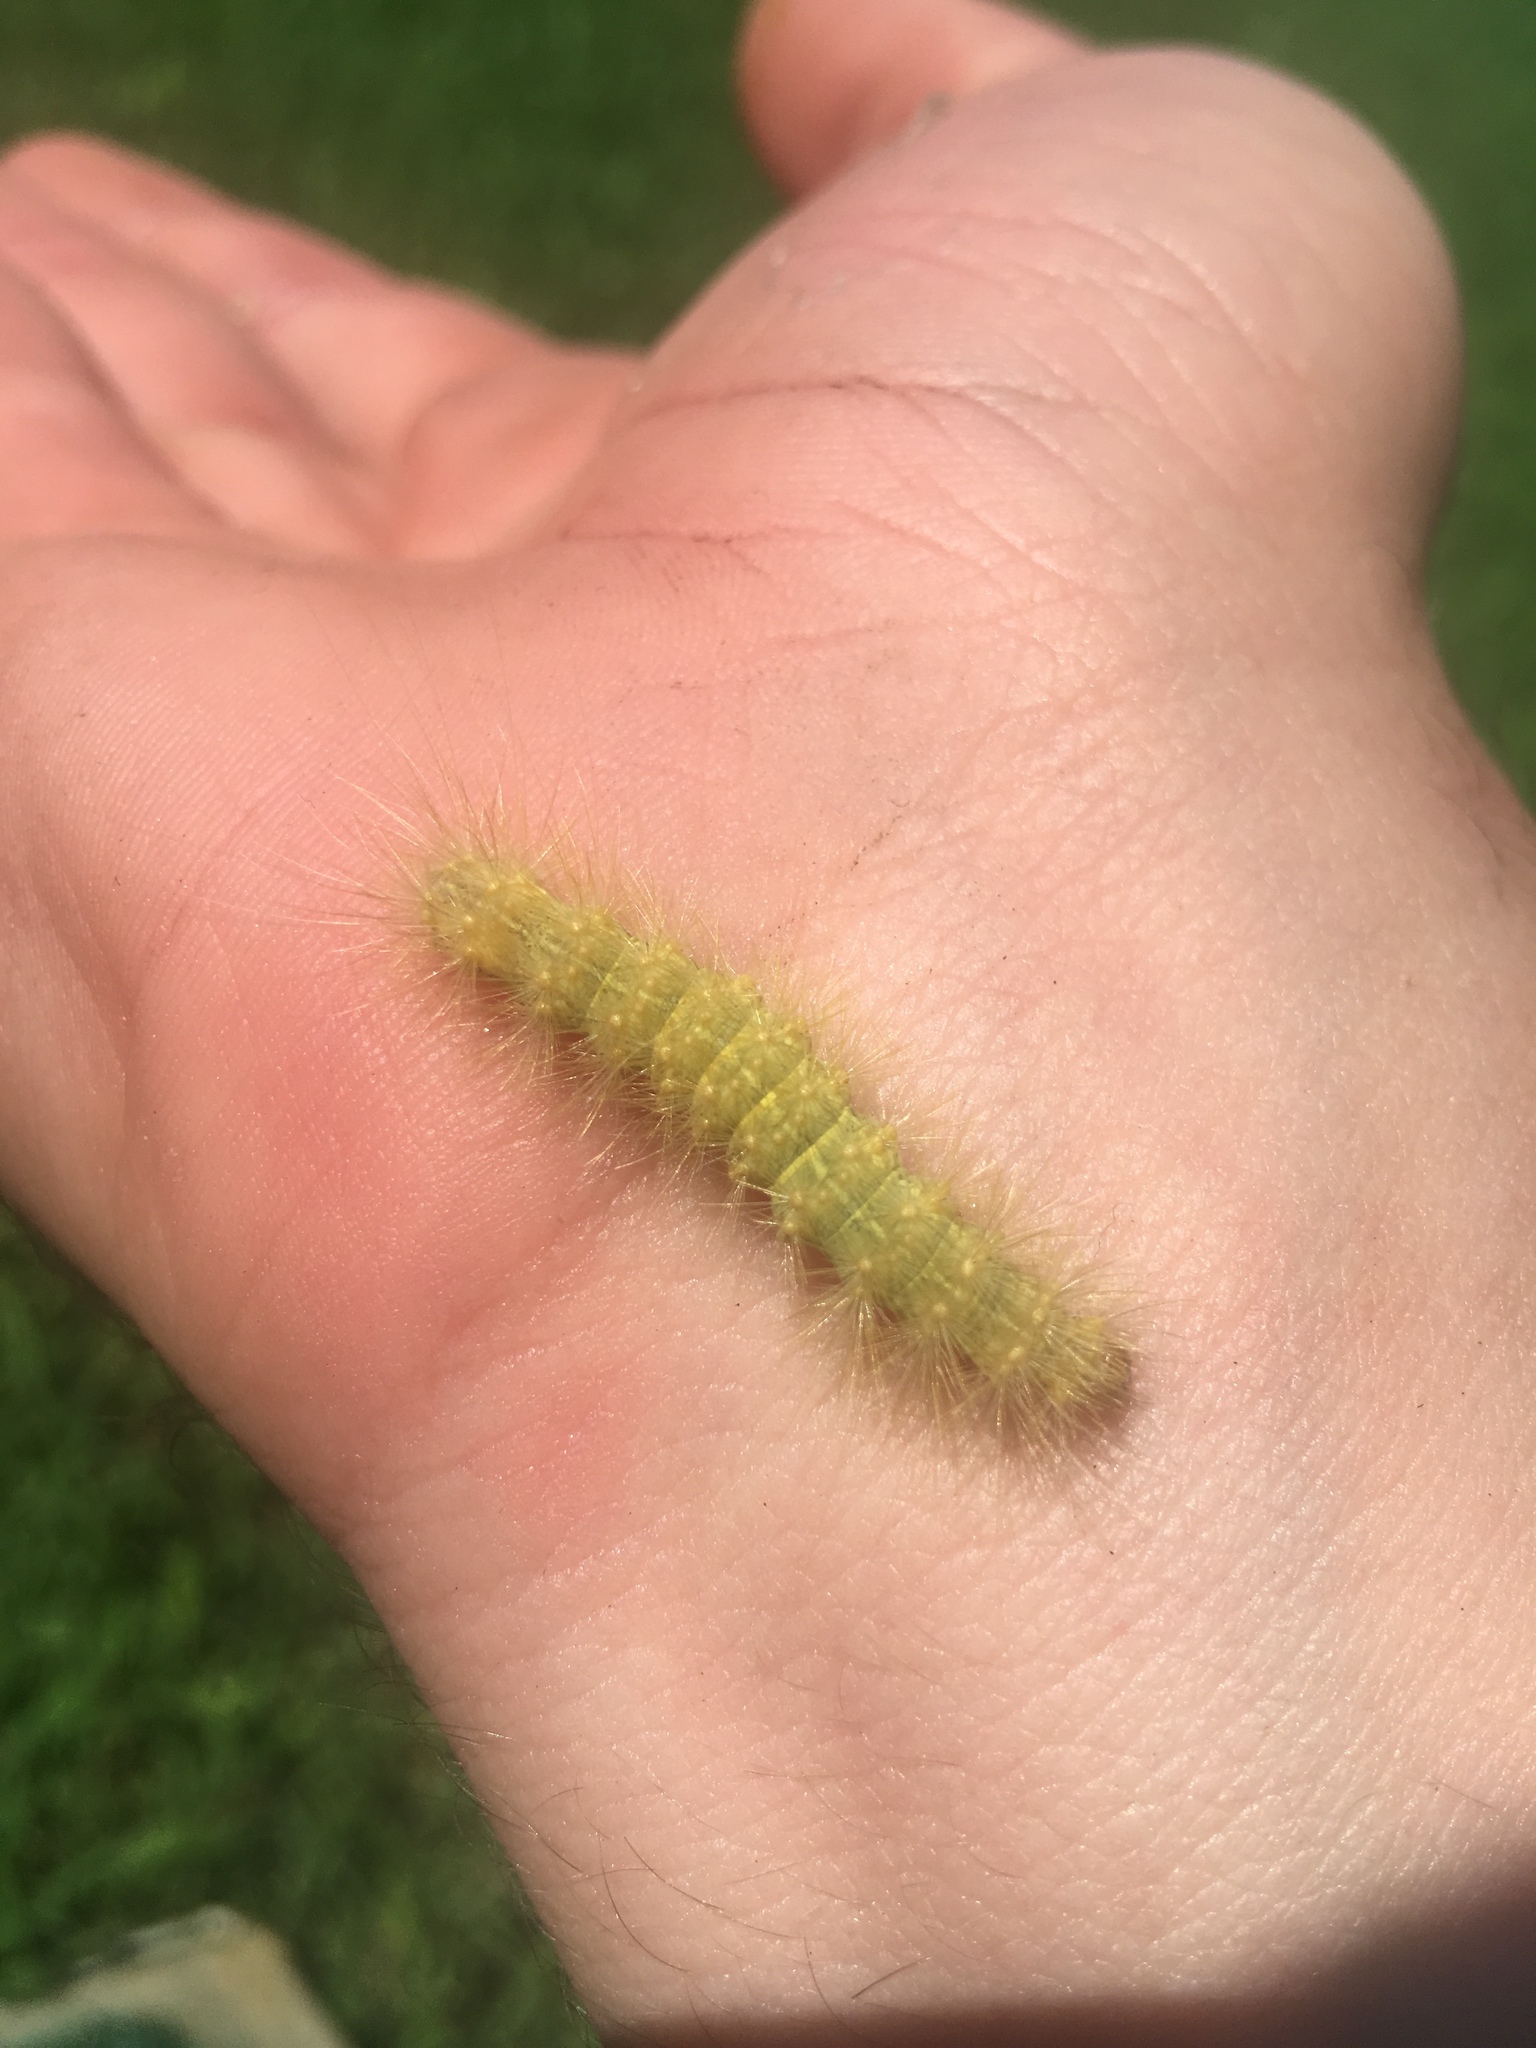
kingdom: Animalia
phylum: Arthropoda
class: Insecta
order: Lepidoptera
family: Erebidae
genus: Estigmene
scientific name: Estigmene acrea
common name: Salt marsh moth
